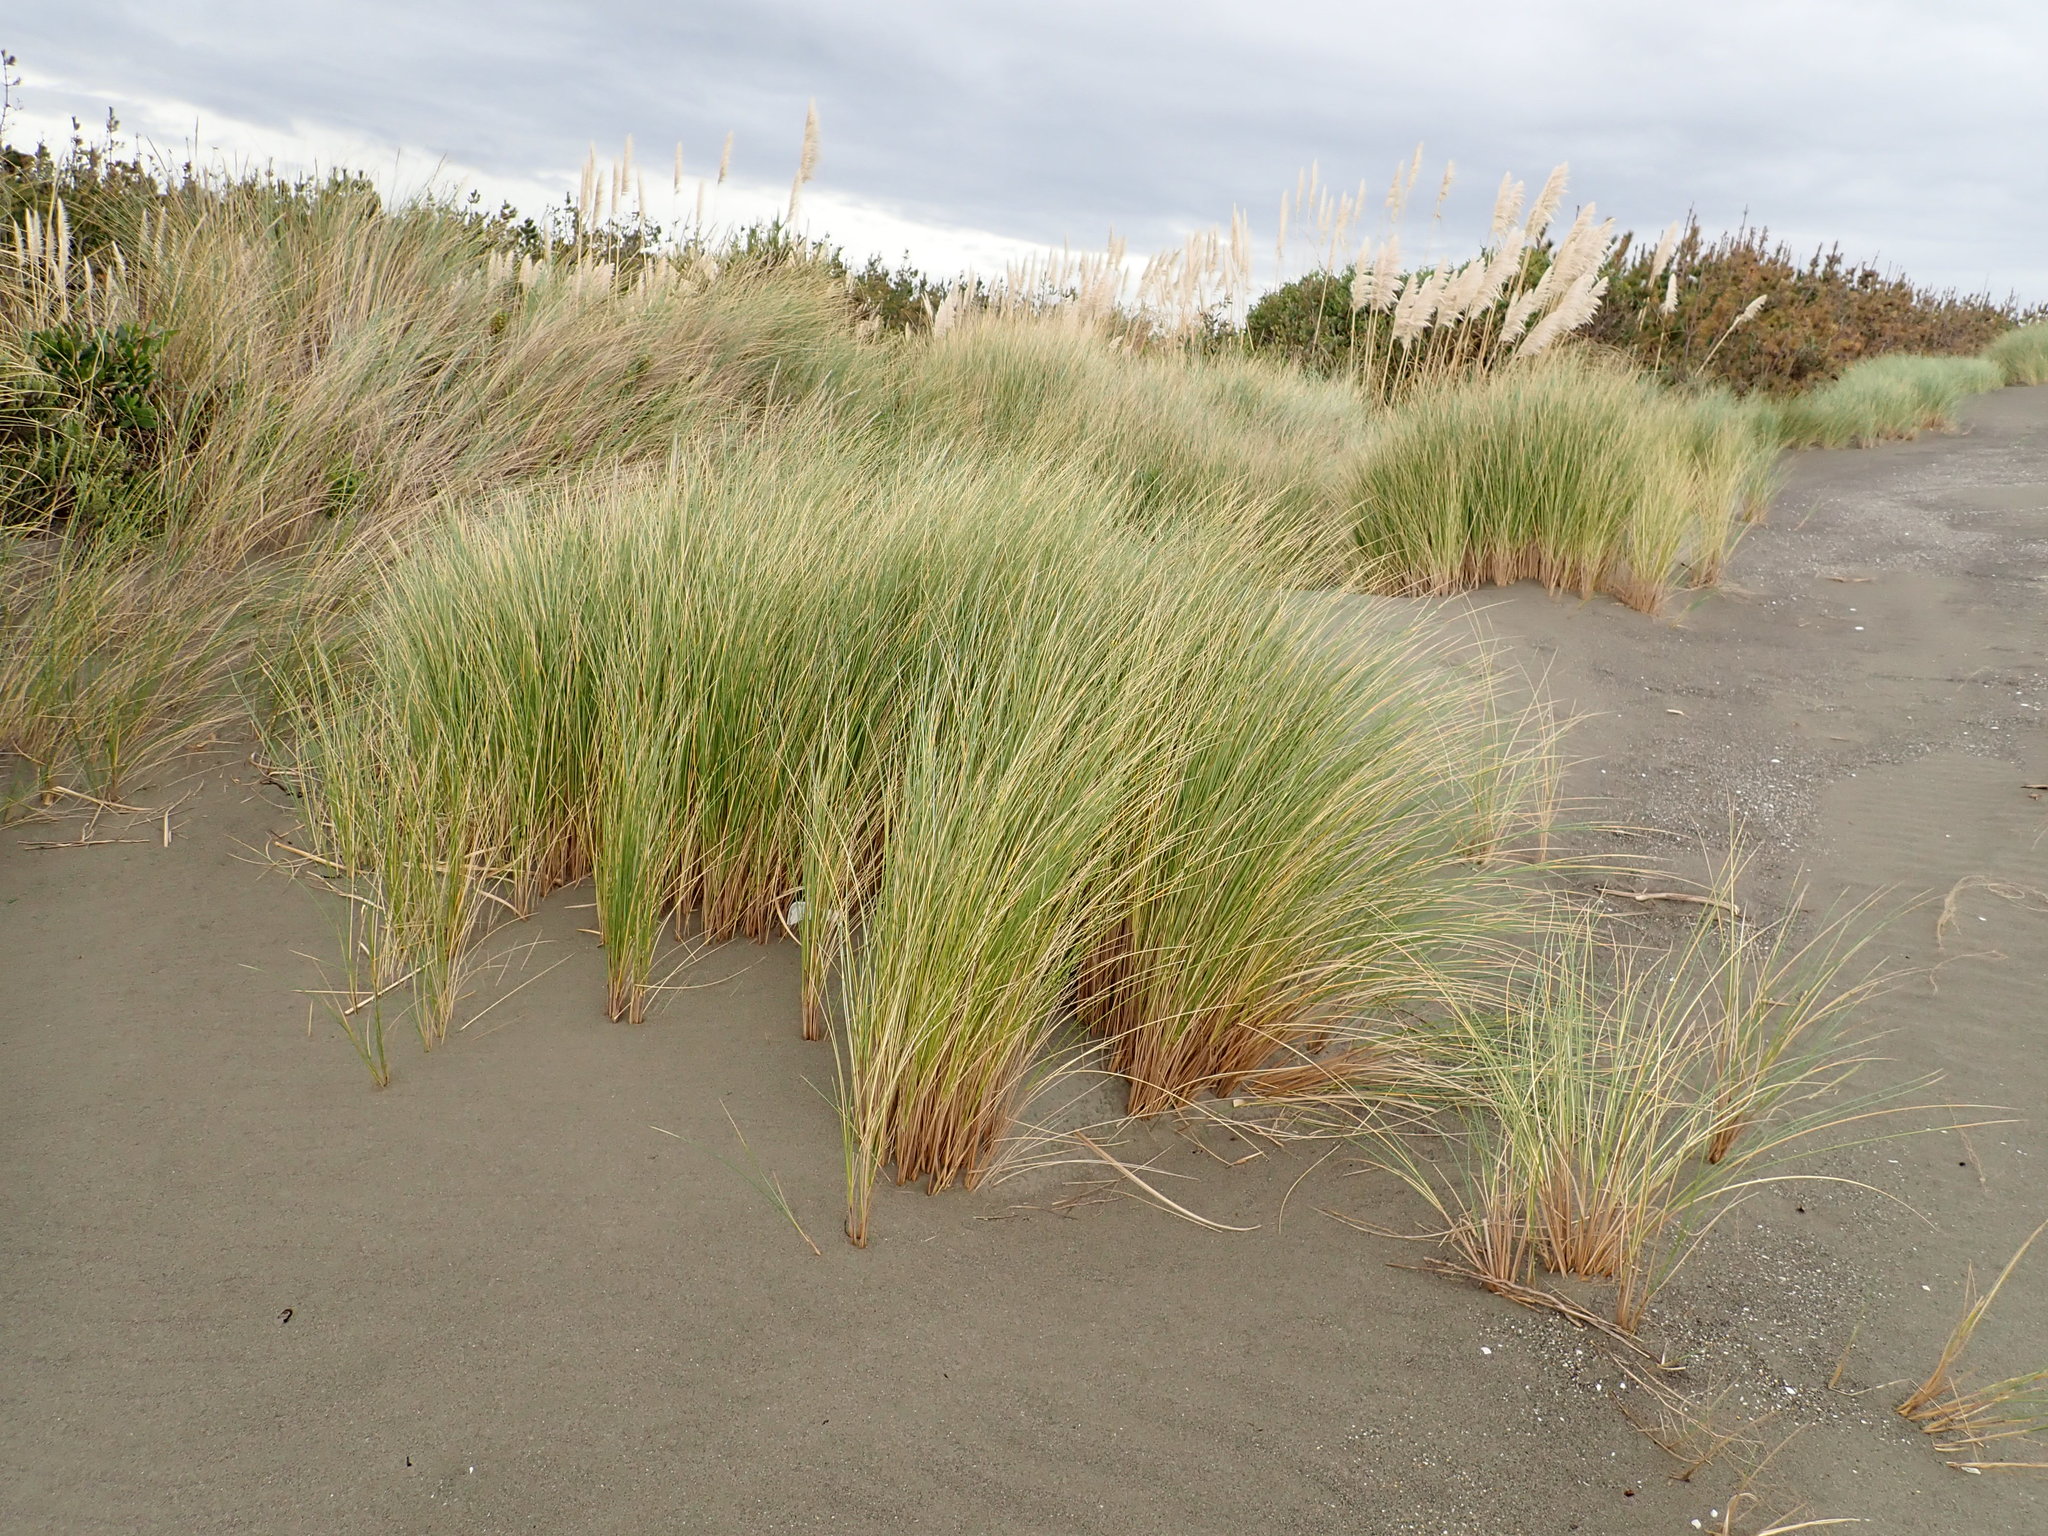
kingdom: Plantae
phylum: Tracheophyta
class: Liliopsida
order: Poales
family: Poaceae
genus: Calamagrostis
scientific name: Calamagrostis arenaria
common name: European beachgrass
